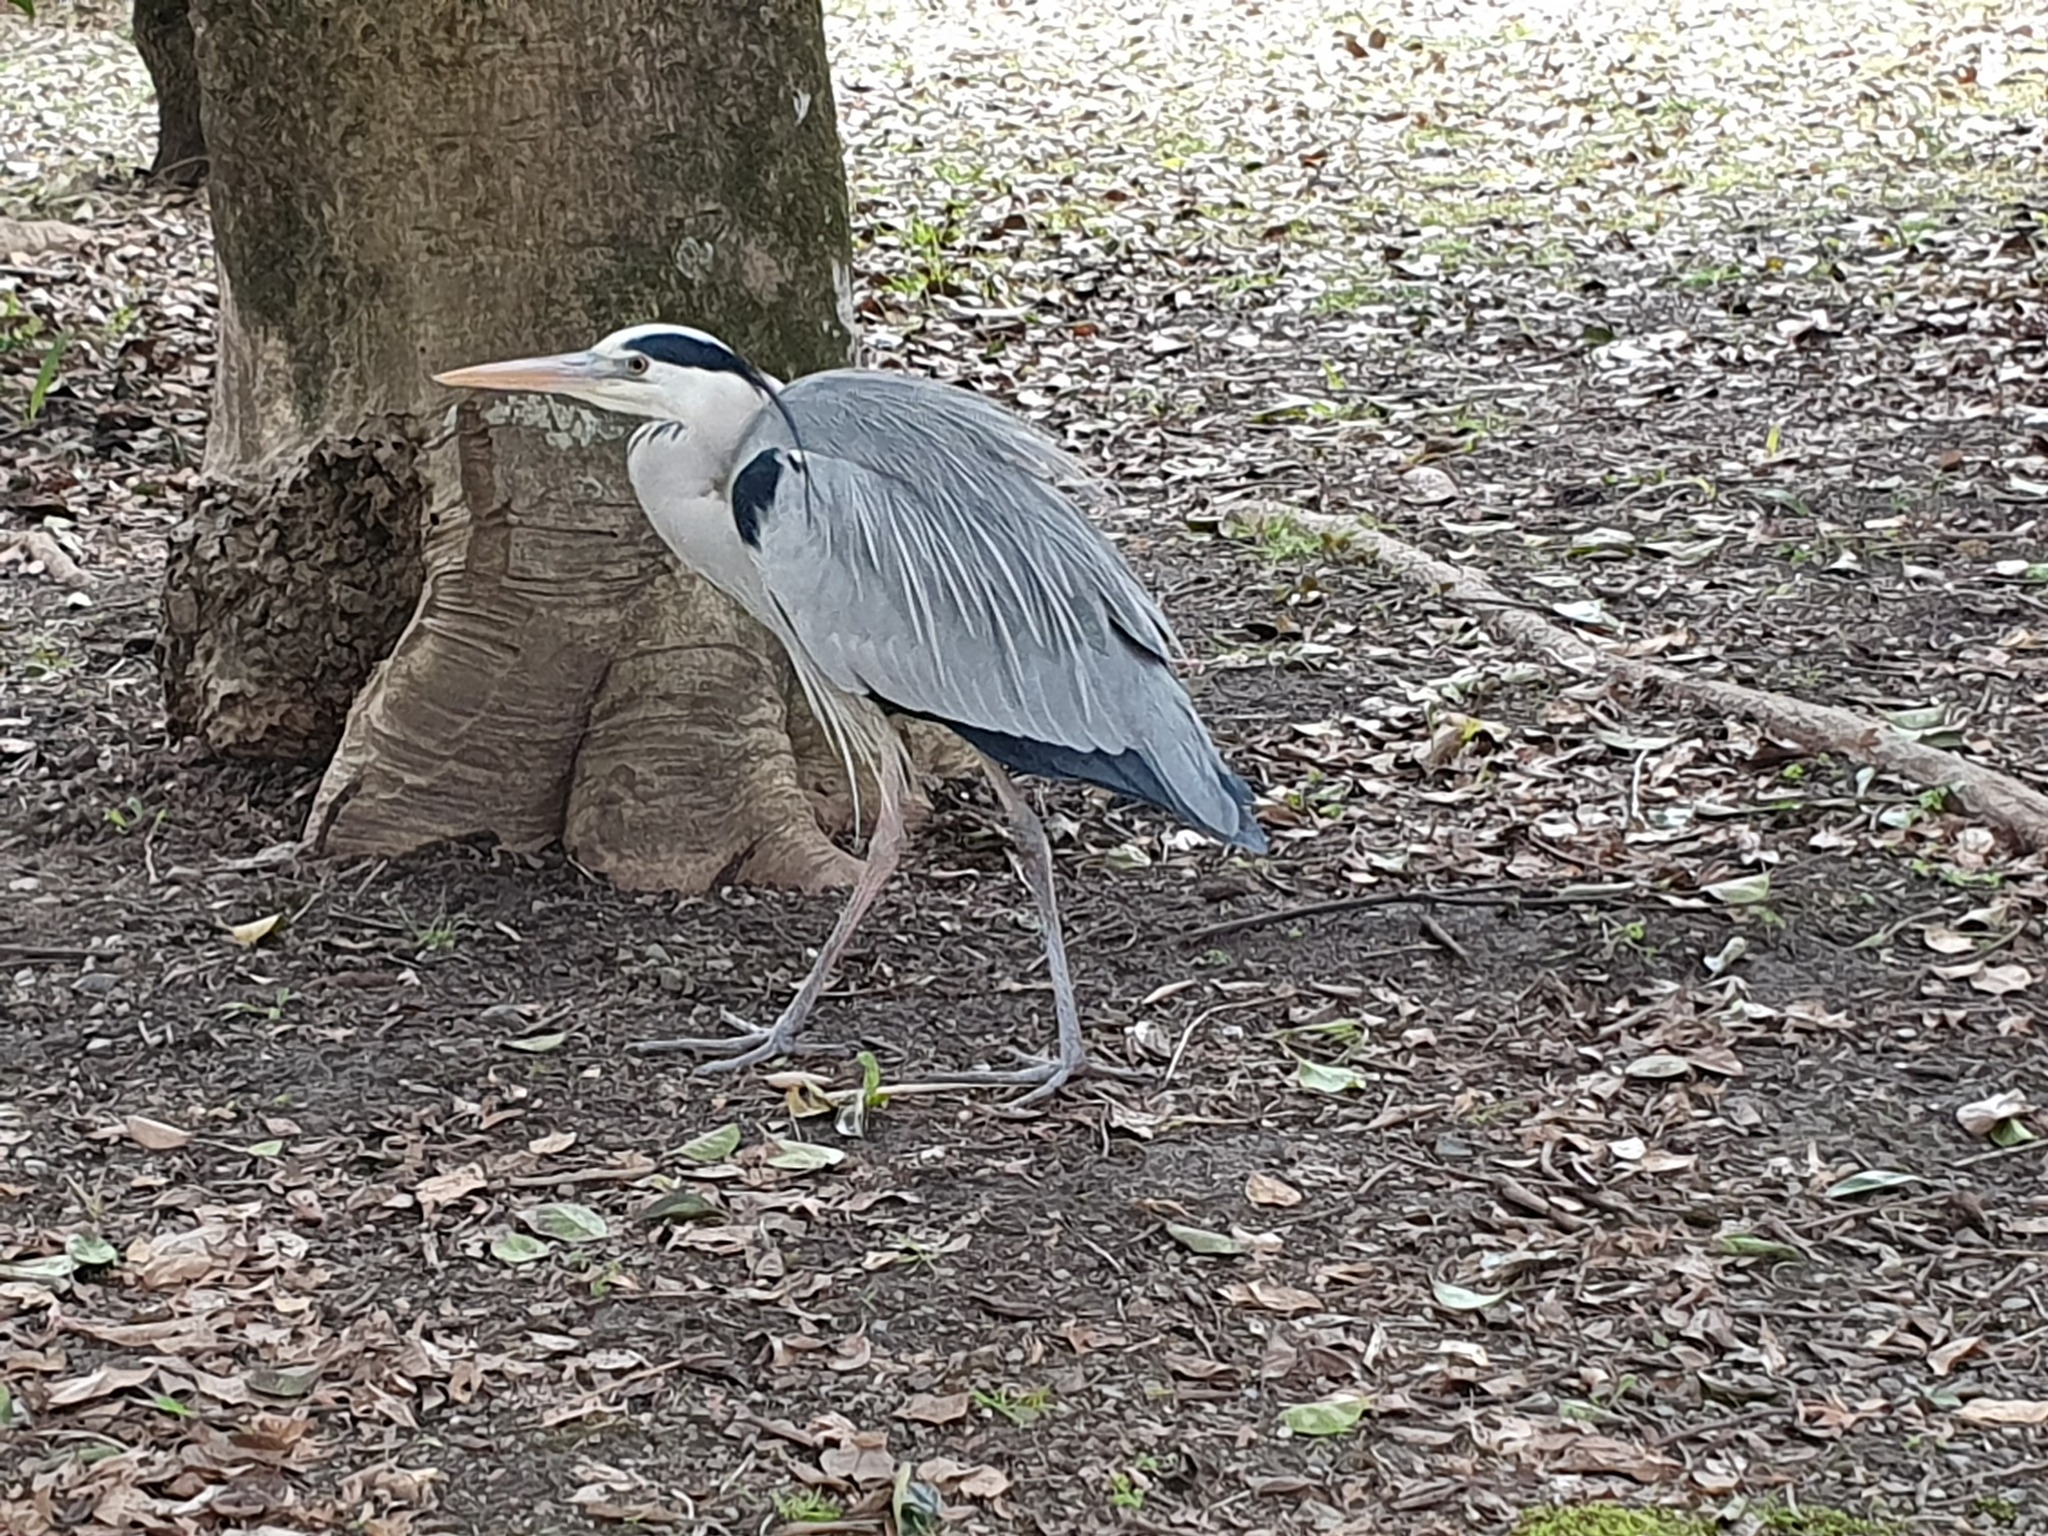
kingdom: Animalia
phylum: Chordata
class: Aves
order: Pelecaniformes
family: Ardeidae
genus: Ardea
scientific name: Ardea cinerea
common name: Grey heron
